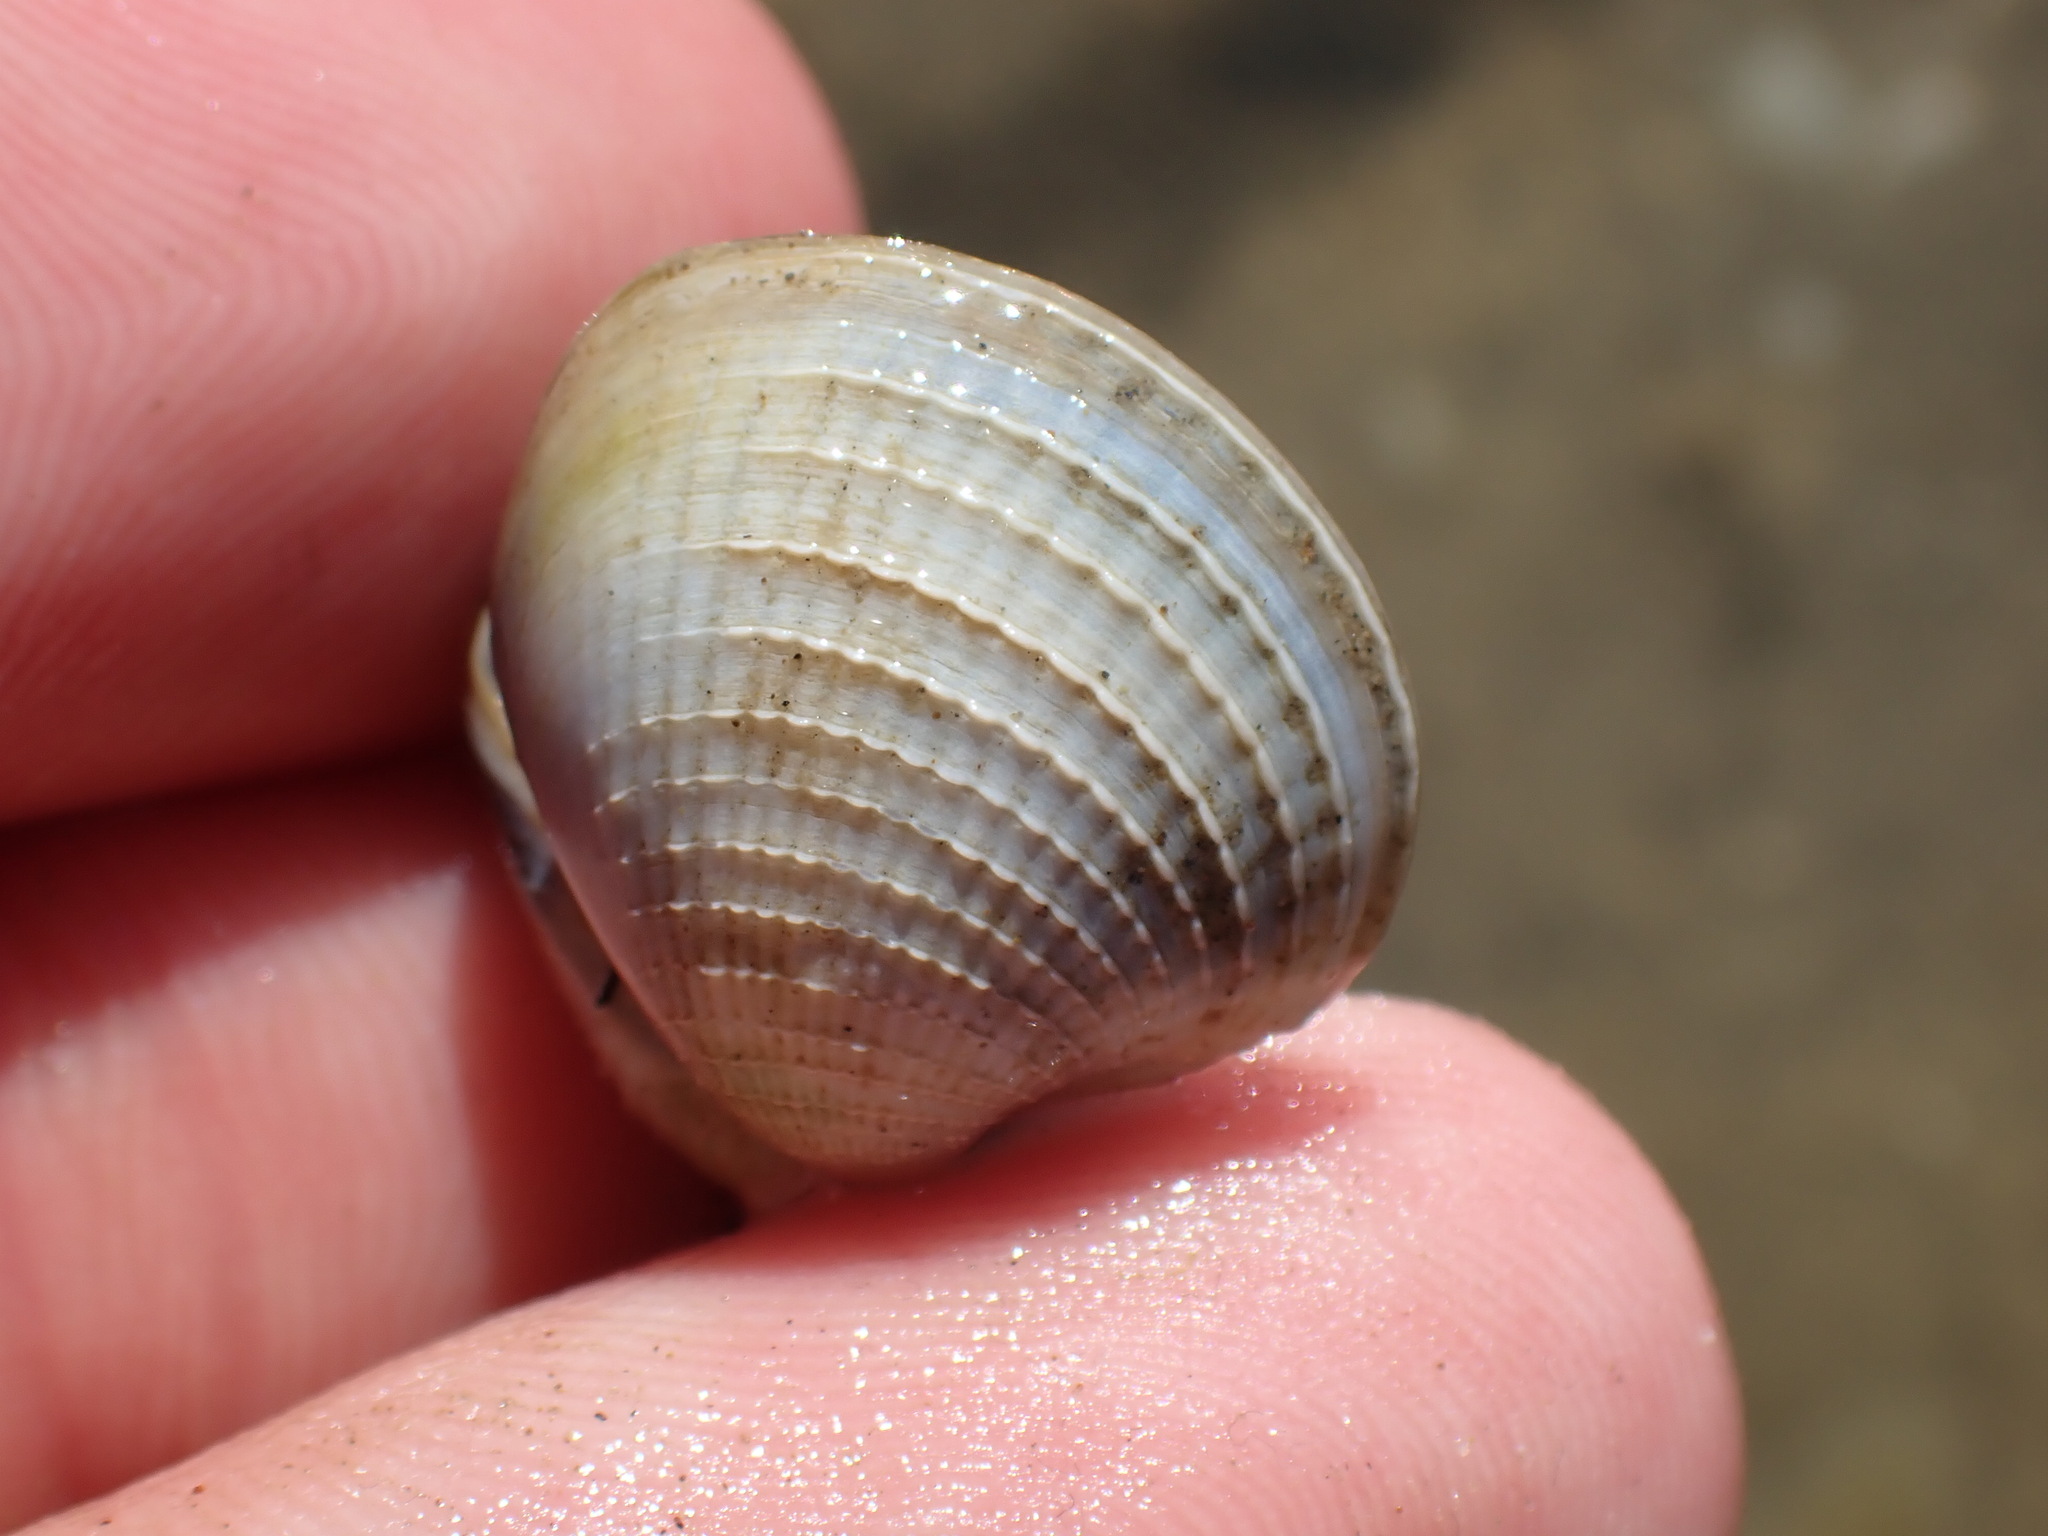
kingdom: Animalia
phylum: Mollusca
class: Bivalvia
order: Venerida
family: Veneridae
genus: Austrovenus
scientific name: Austrovenus stutchburyi
